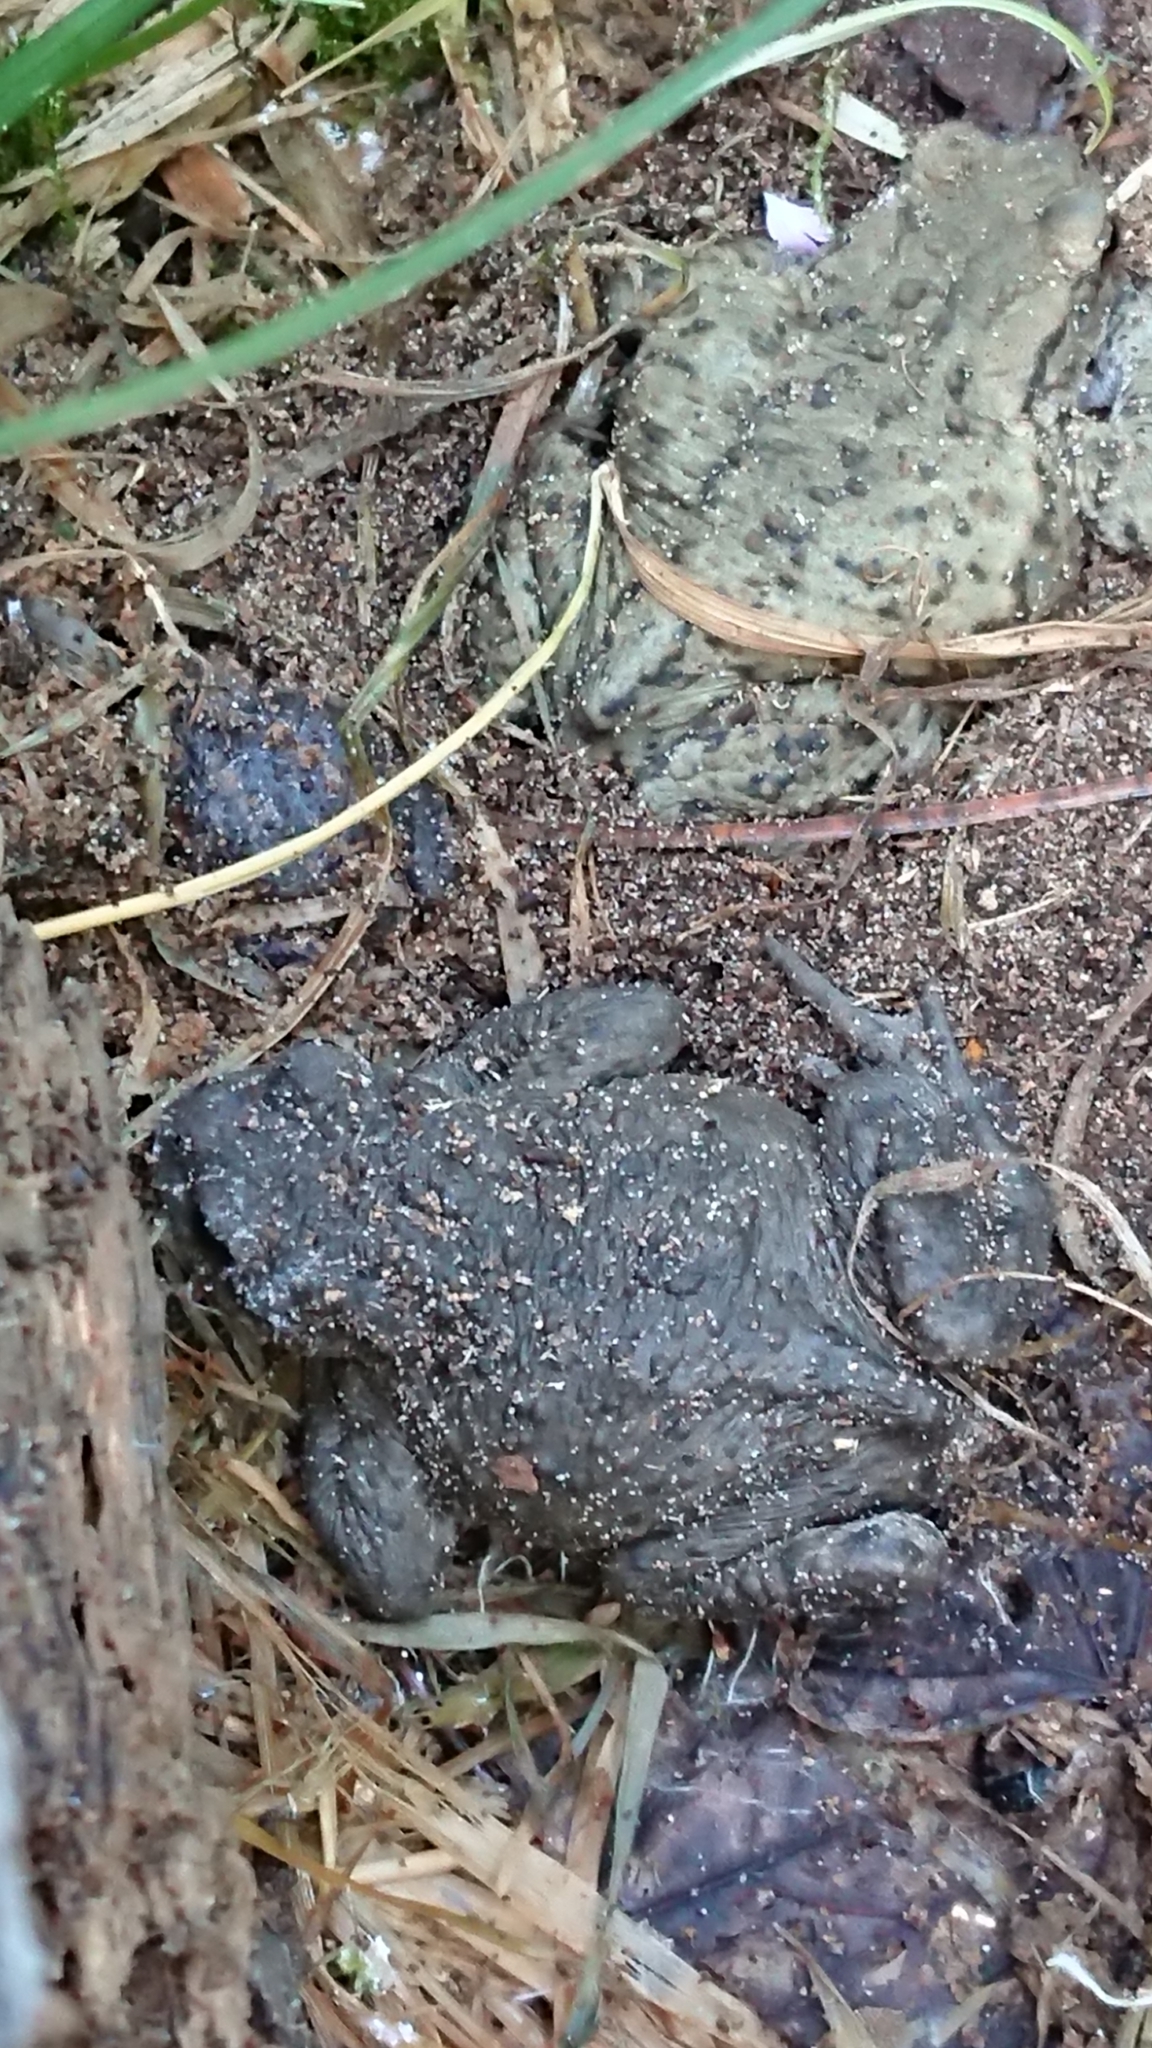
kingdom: Animalia
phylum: Chordata
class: Amphibia
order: Anura
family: Bufonidae
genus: Bufo
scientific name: Bufo bufo
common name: Common toad
